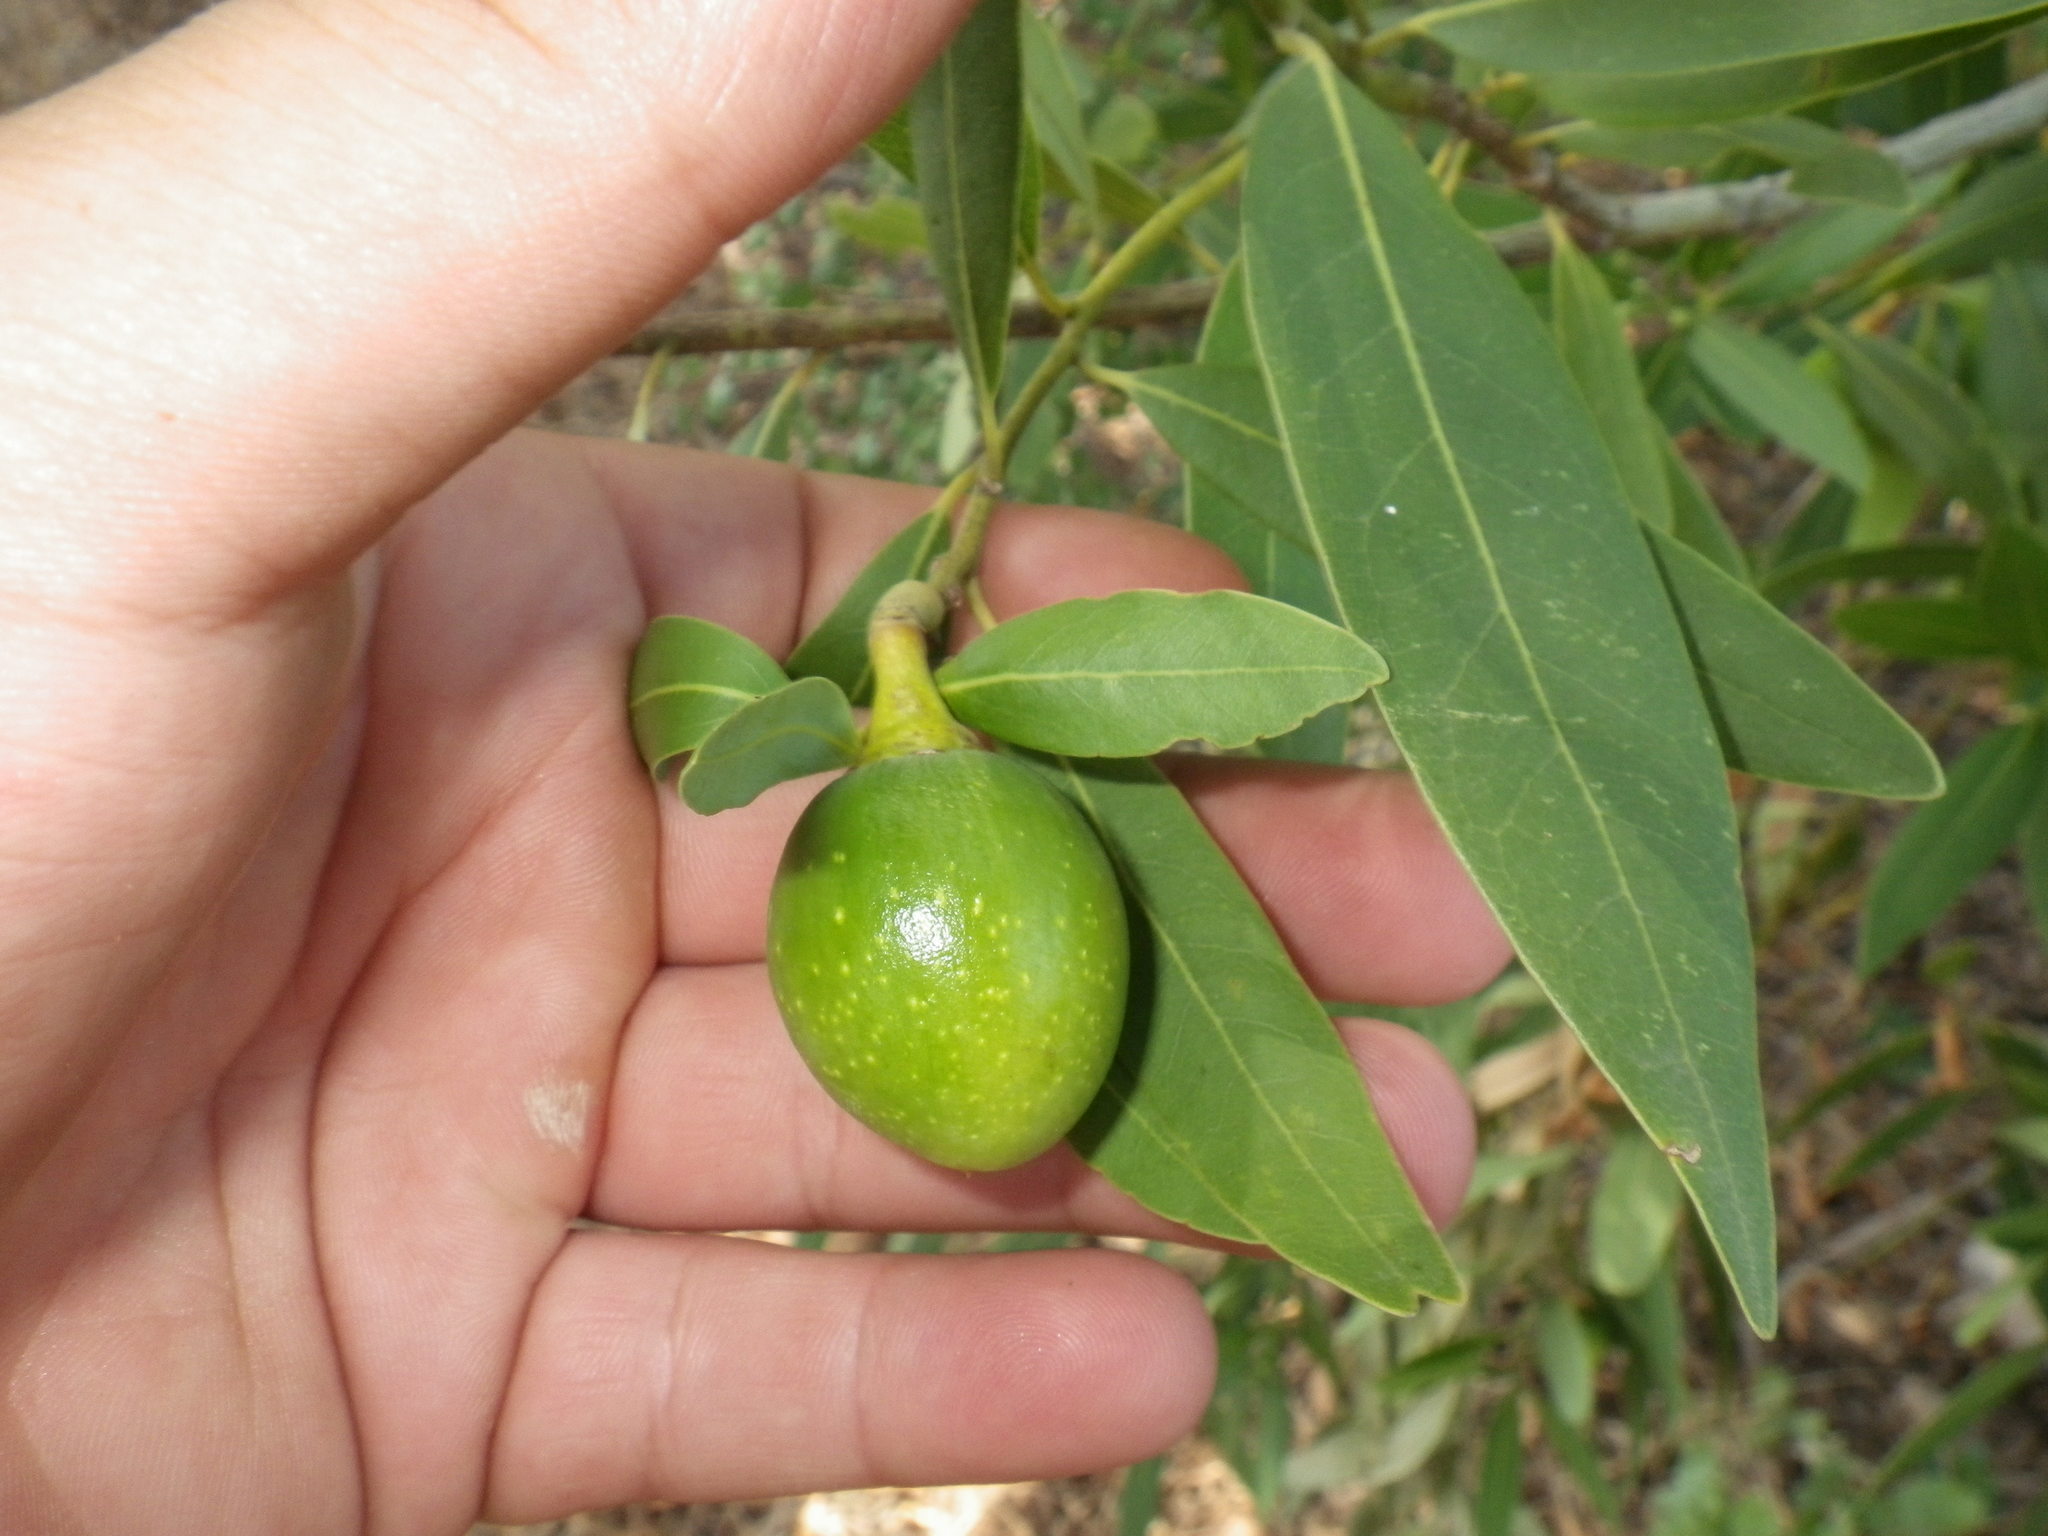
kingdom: Plantae
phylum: Tracheophyta
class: Magnoliopsida
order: Laurales
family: Lauraceae
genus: Umbellularia
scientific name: Umbellularia californica
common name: California bay
